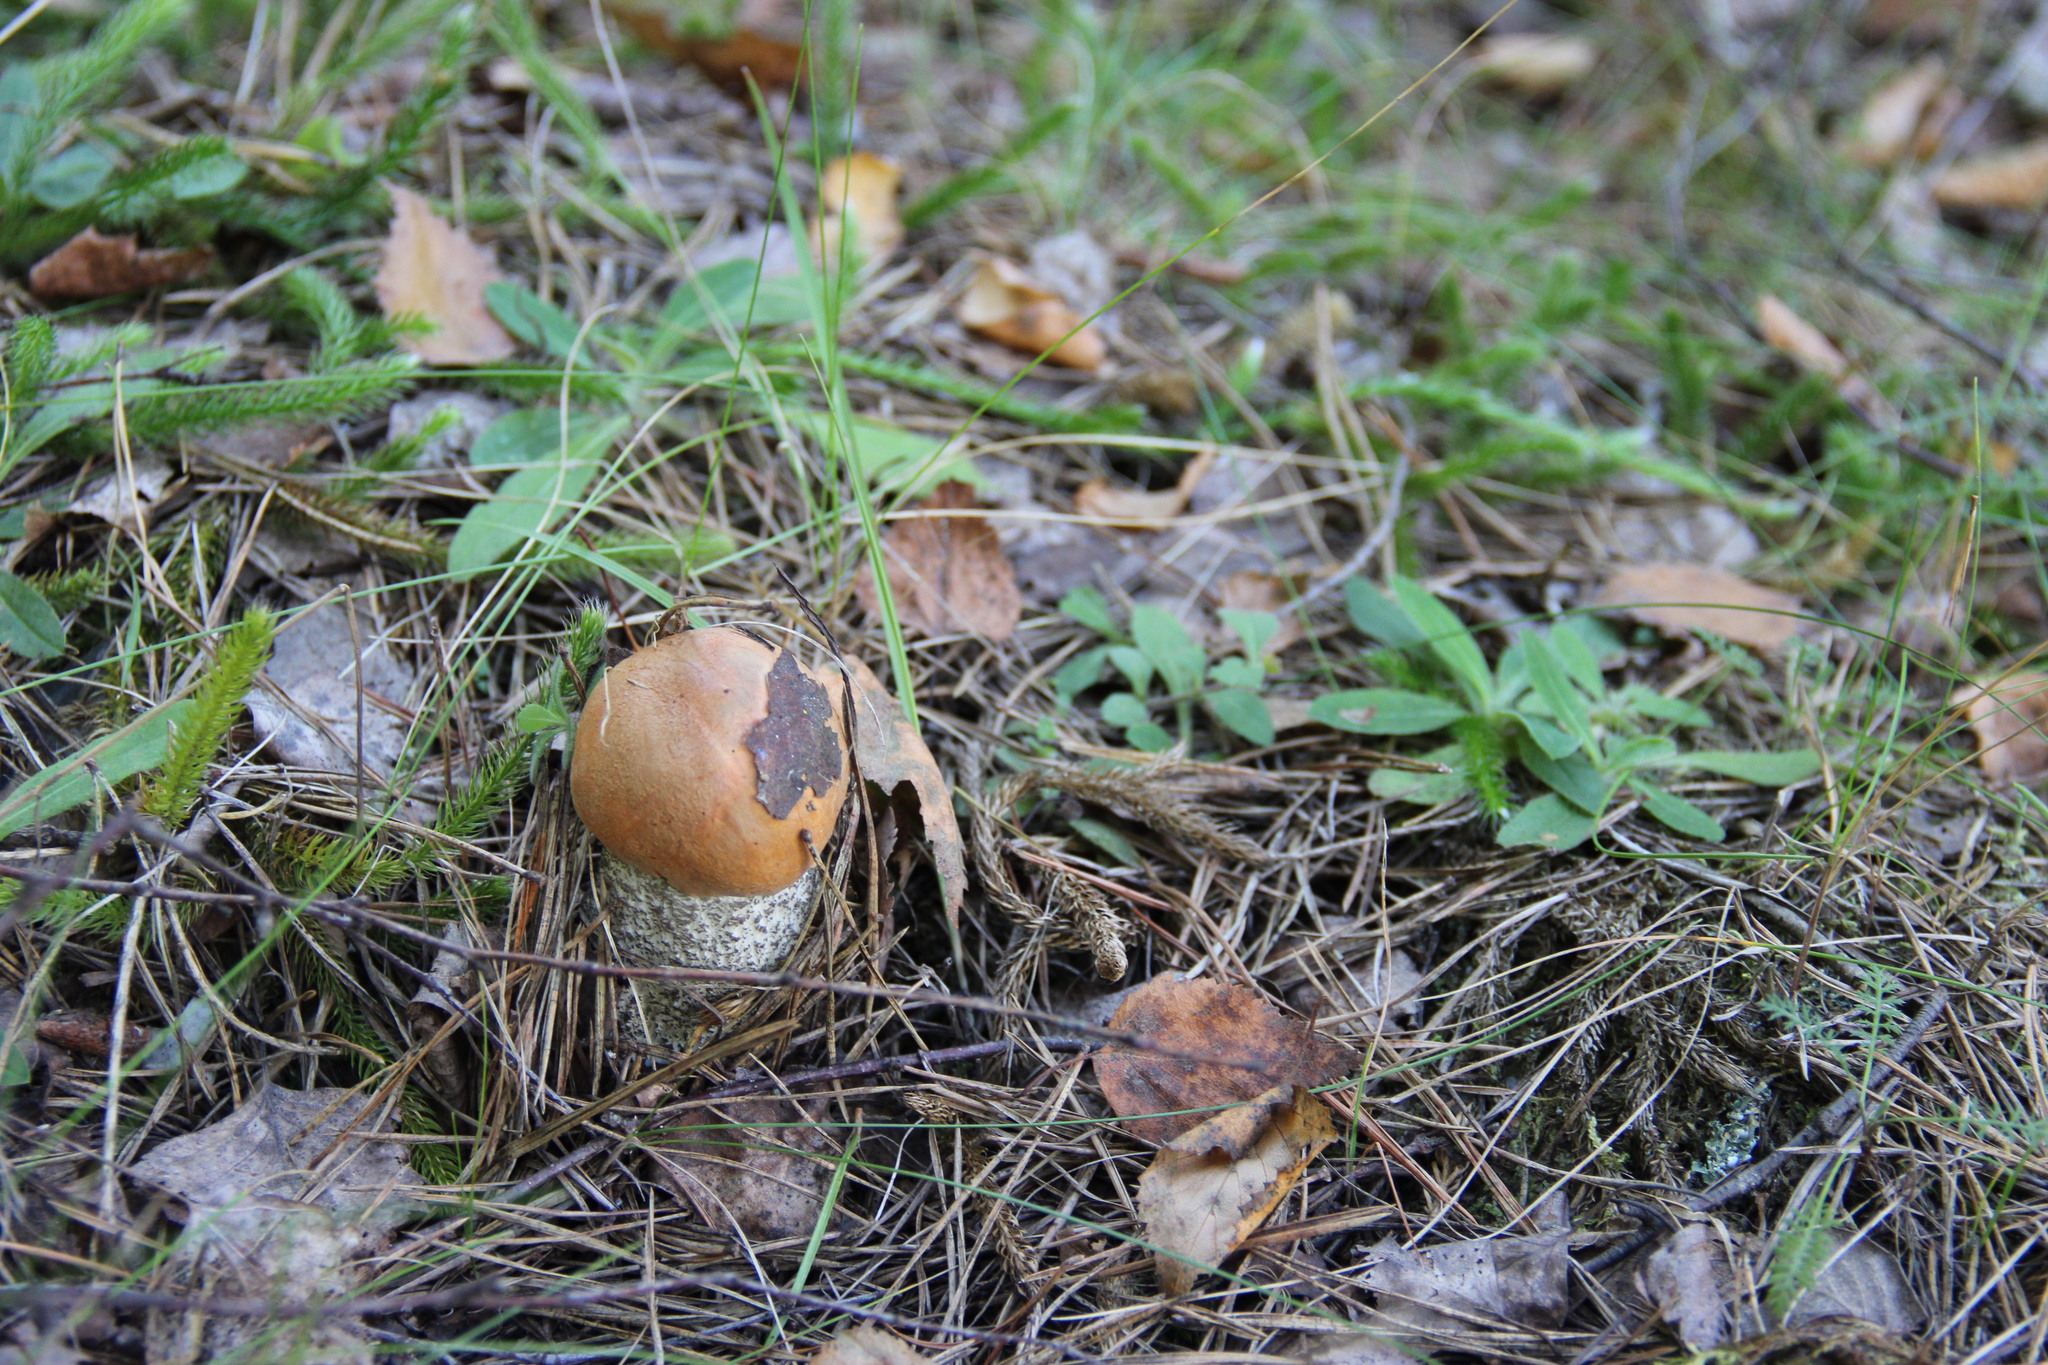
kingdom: Fungi
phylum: Basidiomycota
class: Agaricomycetes
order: Boletales
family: Boletaceae
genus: Leccinum
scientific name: Leccinum versipelle
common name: Orange birch bolete
